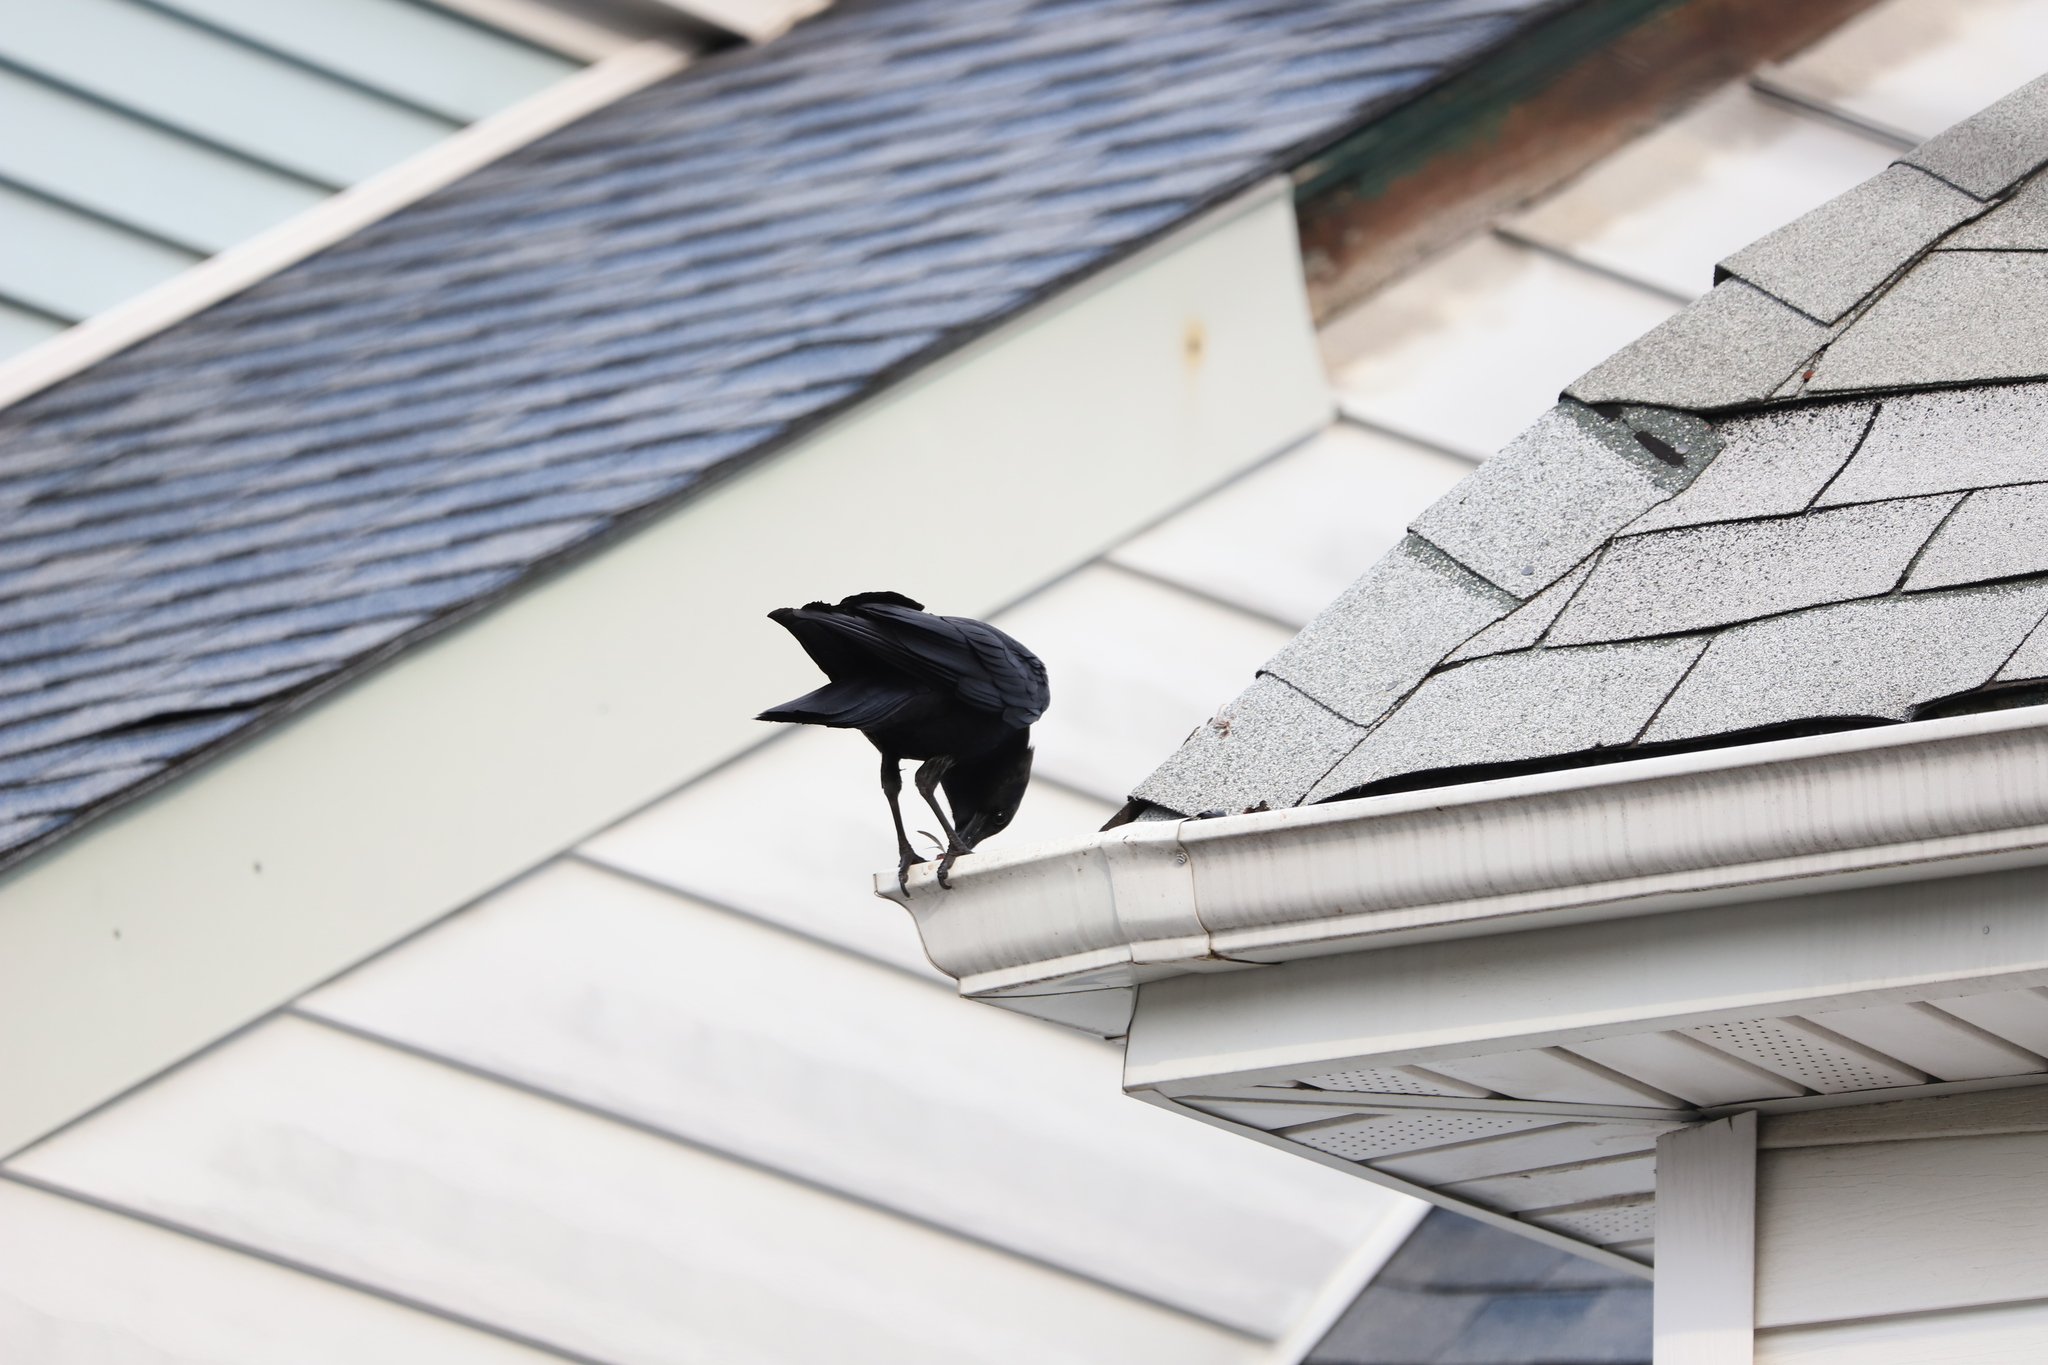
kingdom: Animalia
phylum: Chordata
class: Aves
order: Passeriformes
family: Corvidae
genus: Corvus
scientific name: Corvus
